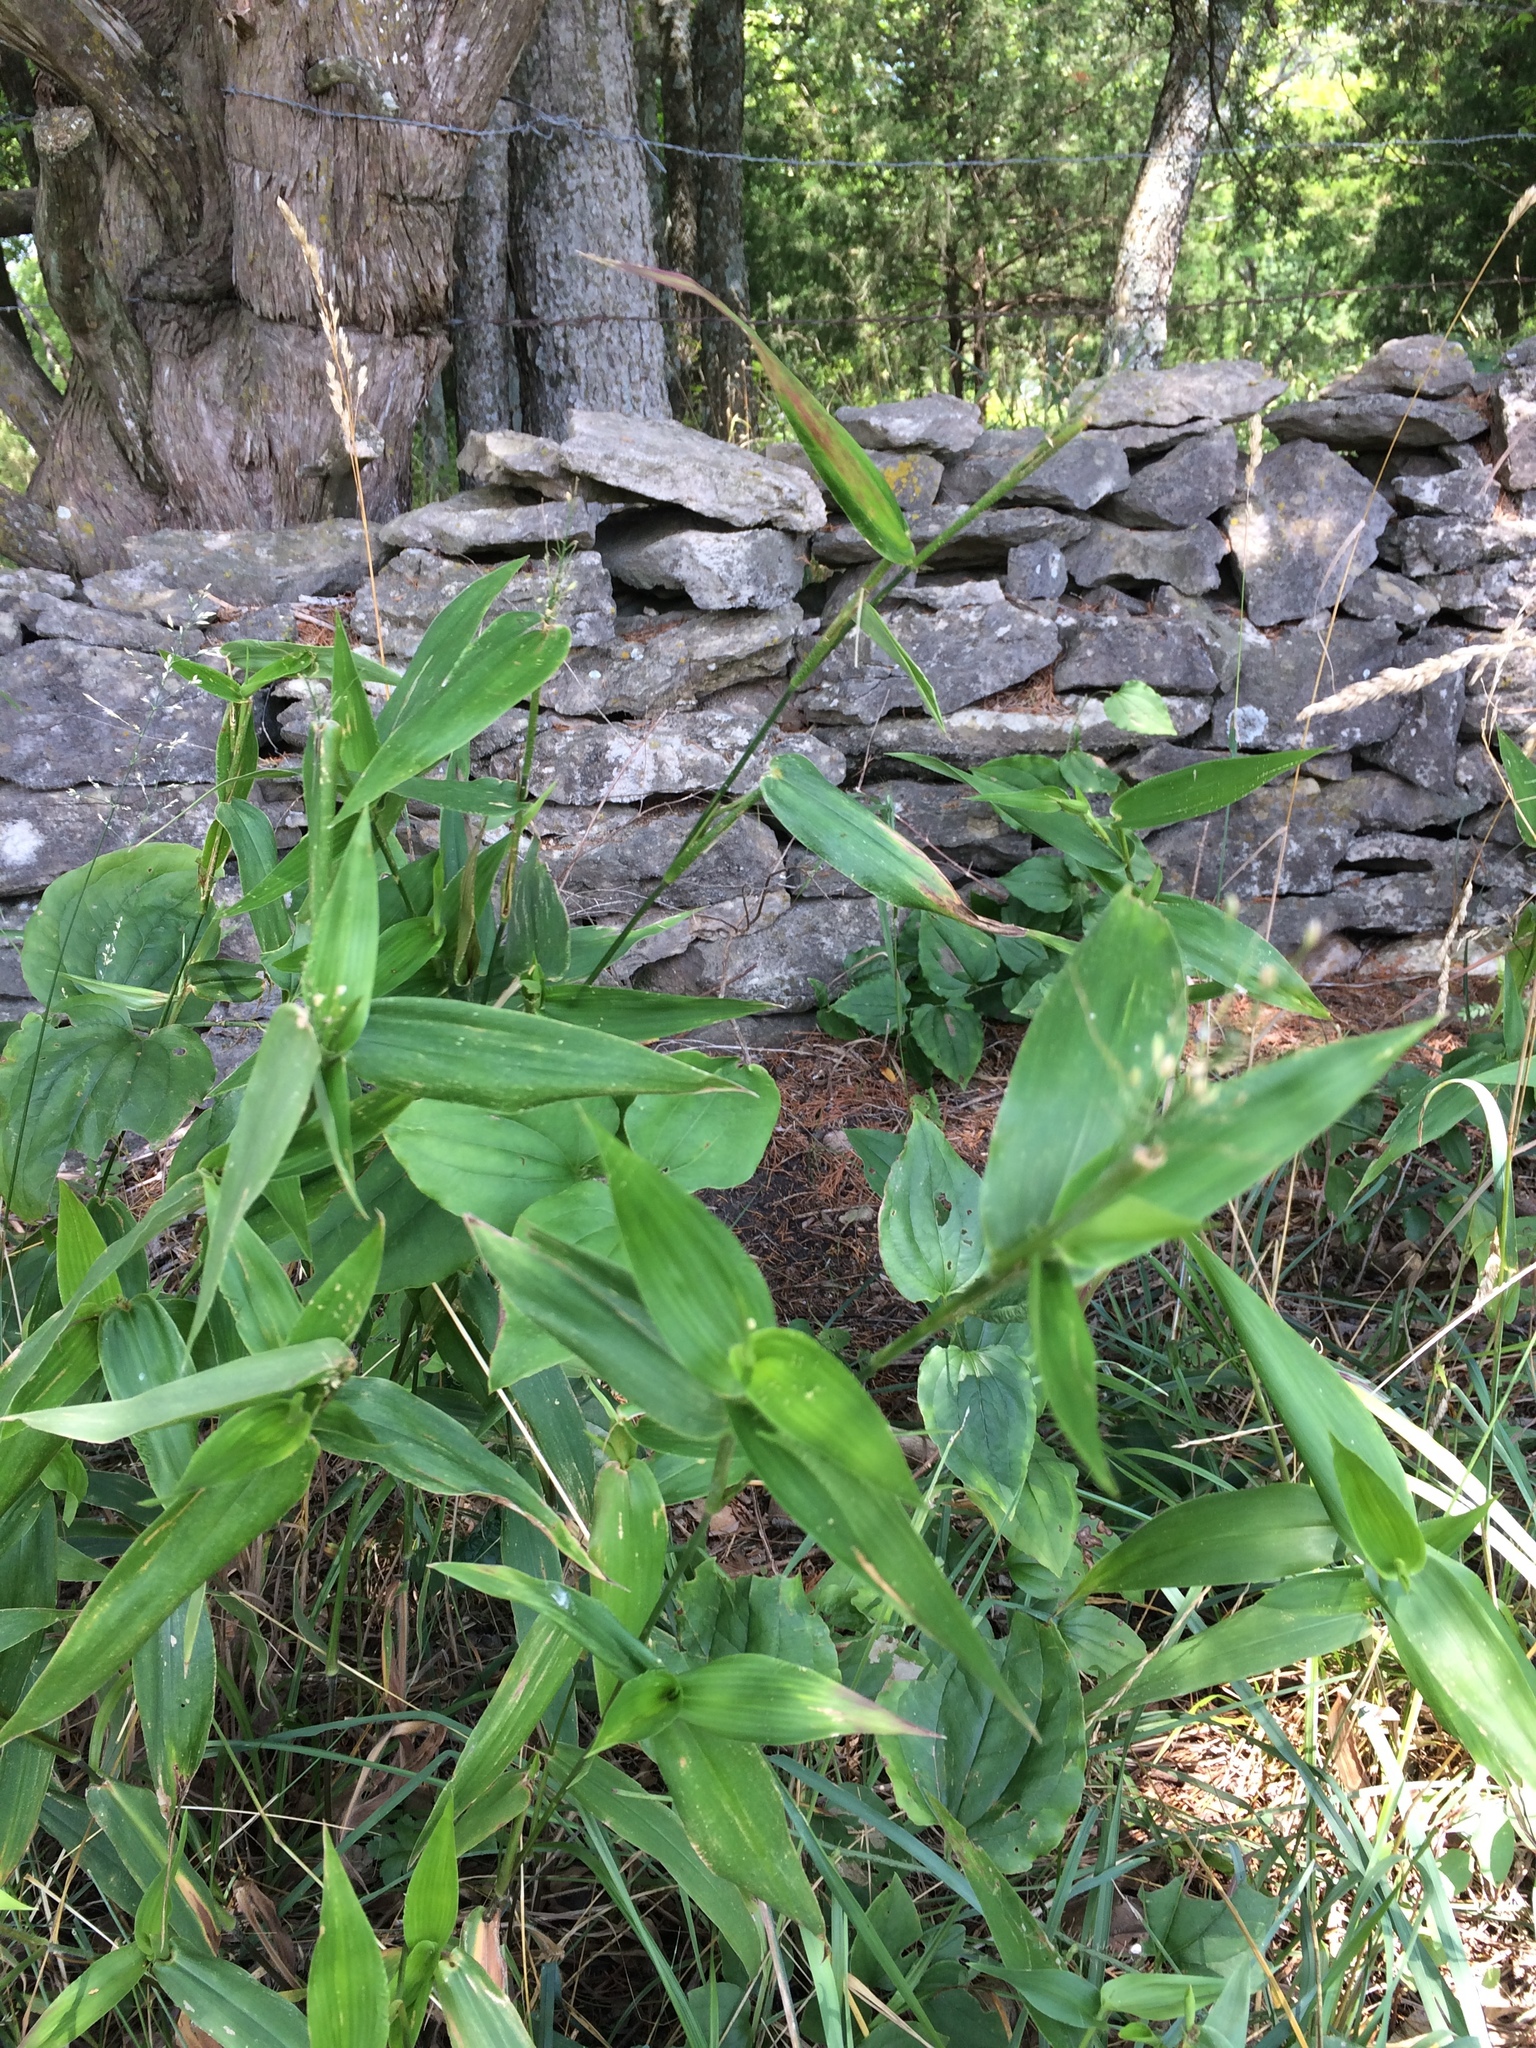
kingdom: Plantae
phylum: Tracheophyta
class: Liliopsida
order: Poales
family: Poaceae
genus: Dichanthelium
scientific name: Dichanthelium commutatum
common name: Variable witchgrass
